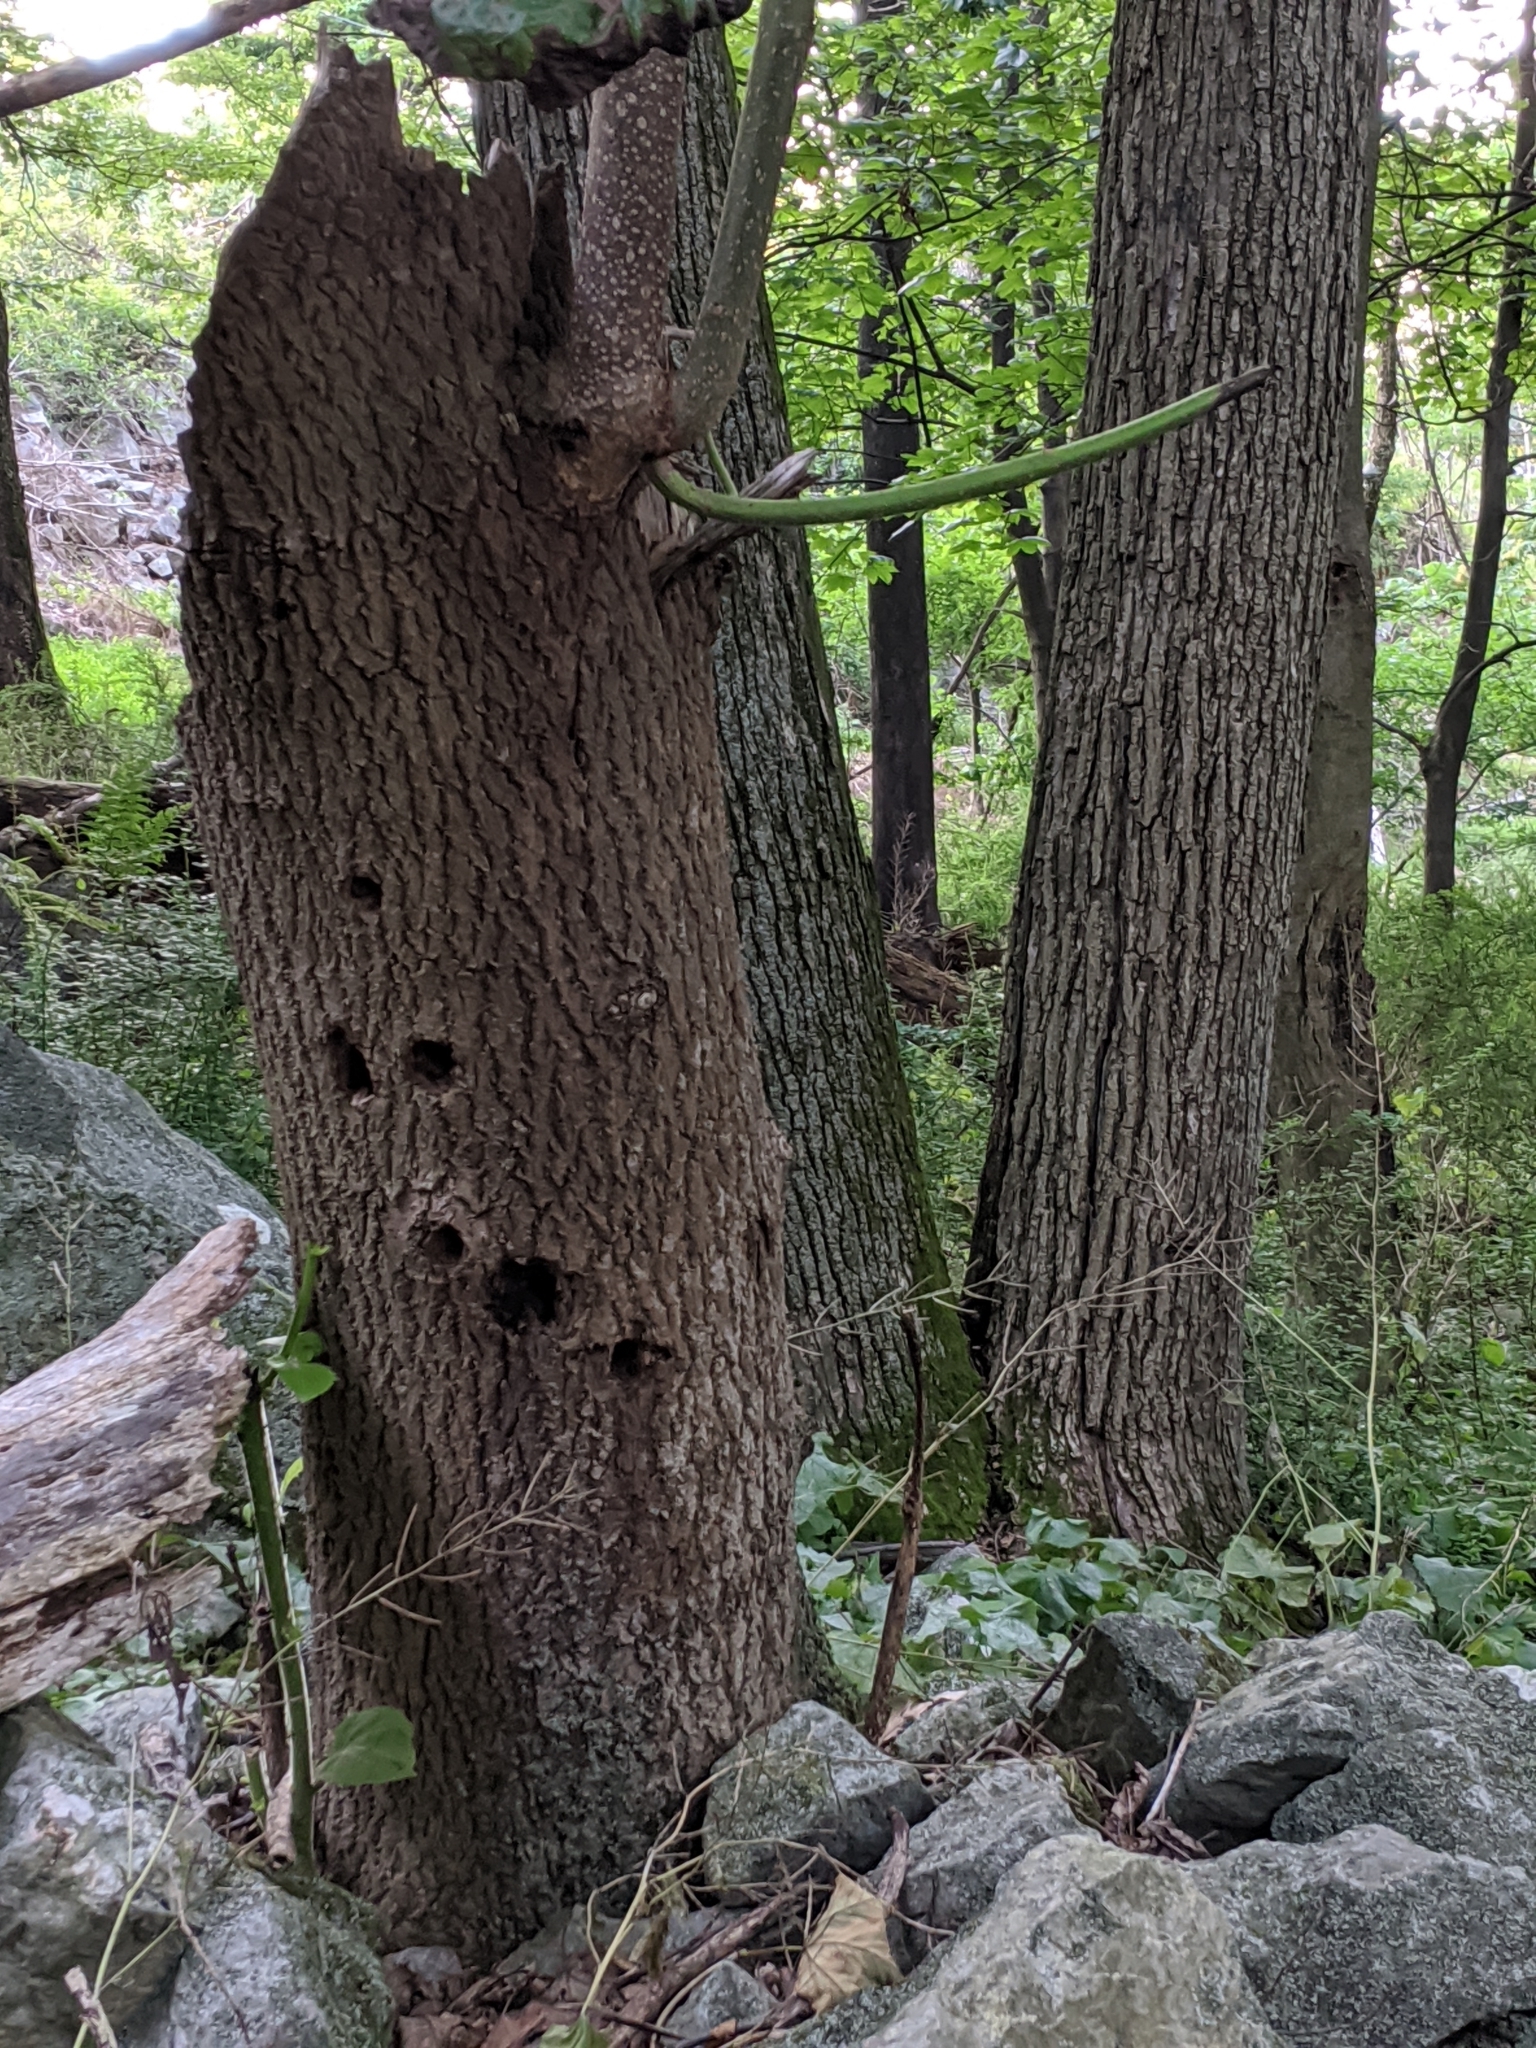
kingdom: Plantae
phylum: Tracheophyta
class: Magnoliopsida
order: Lamiales
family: Paulowniaceae
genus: Paulownia
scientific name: Paulownia tomentosa
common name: Foxglove-tree
